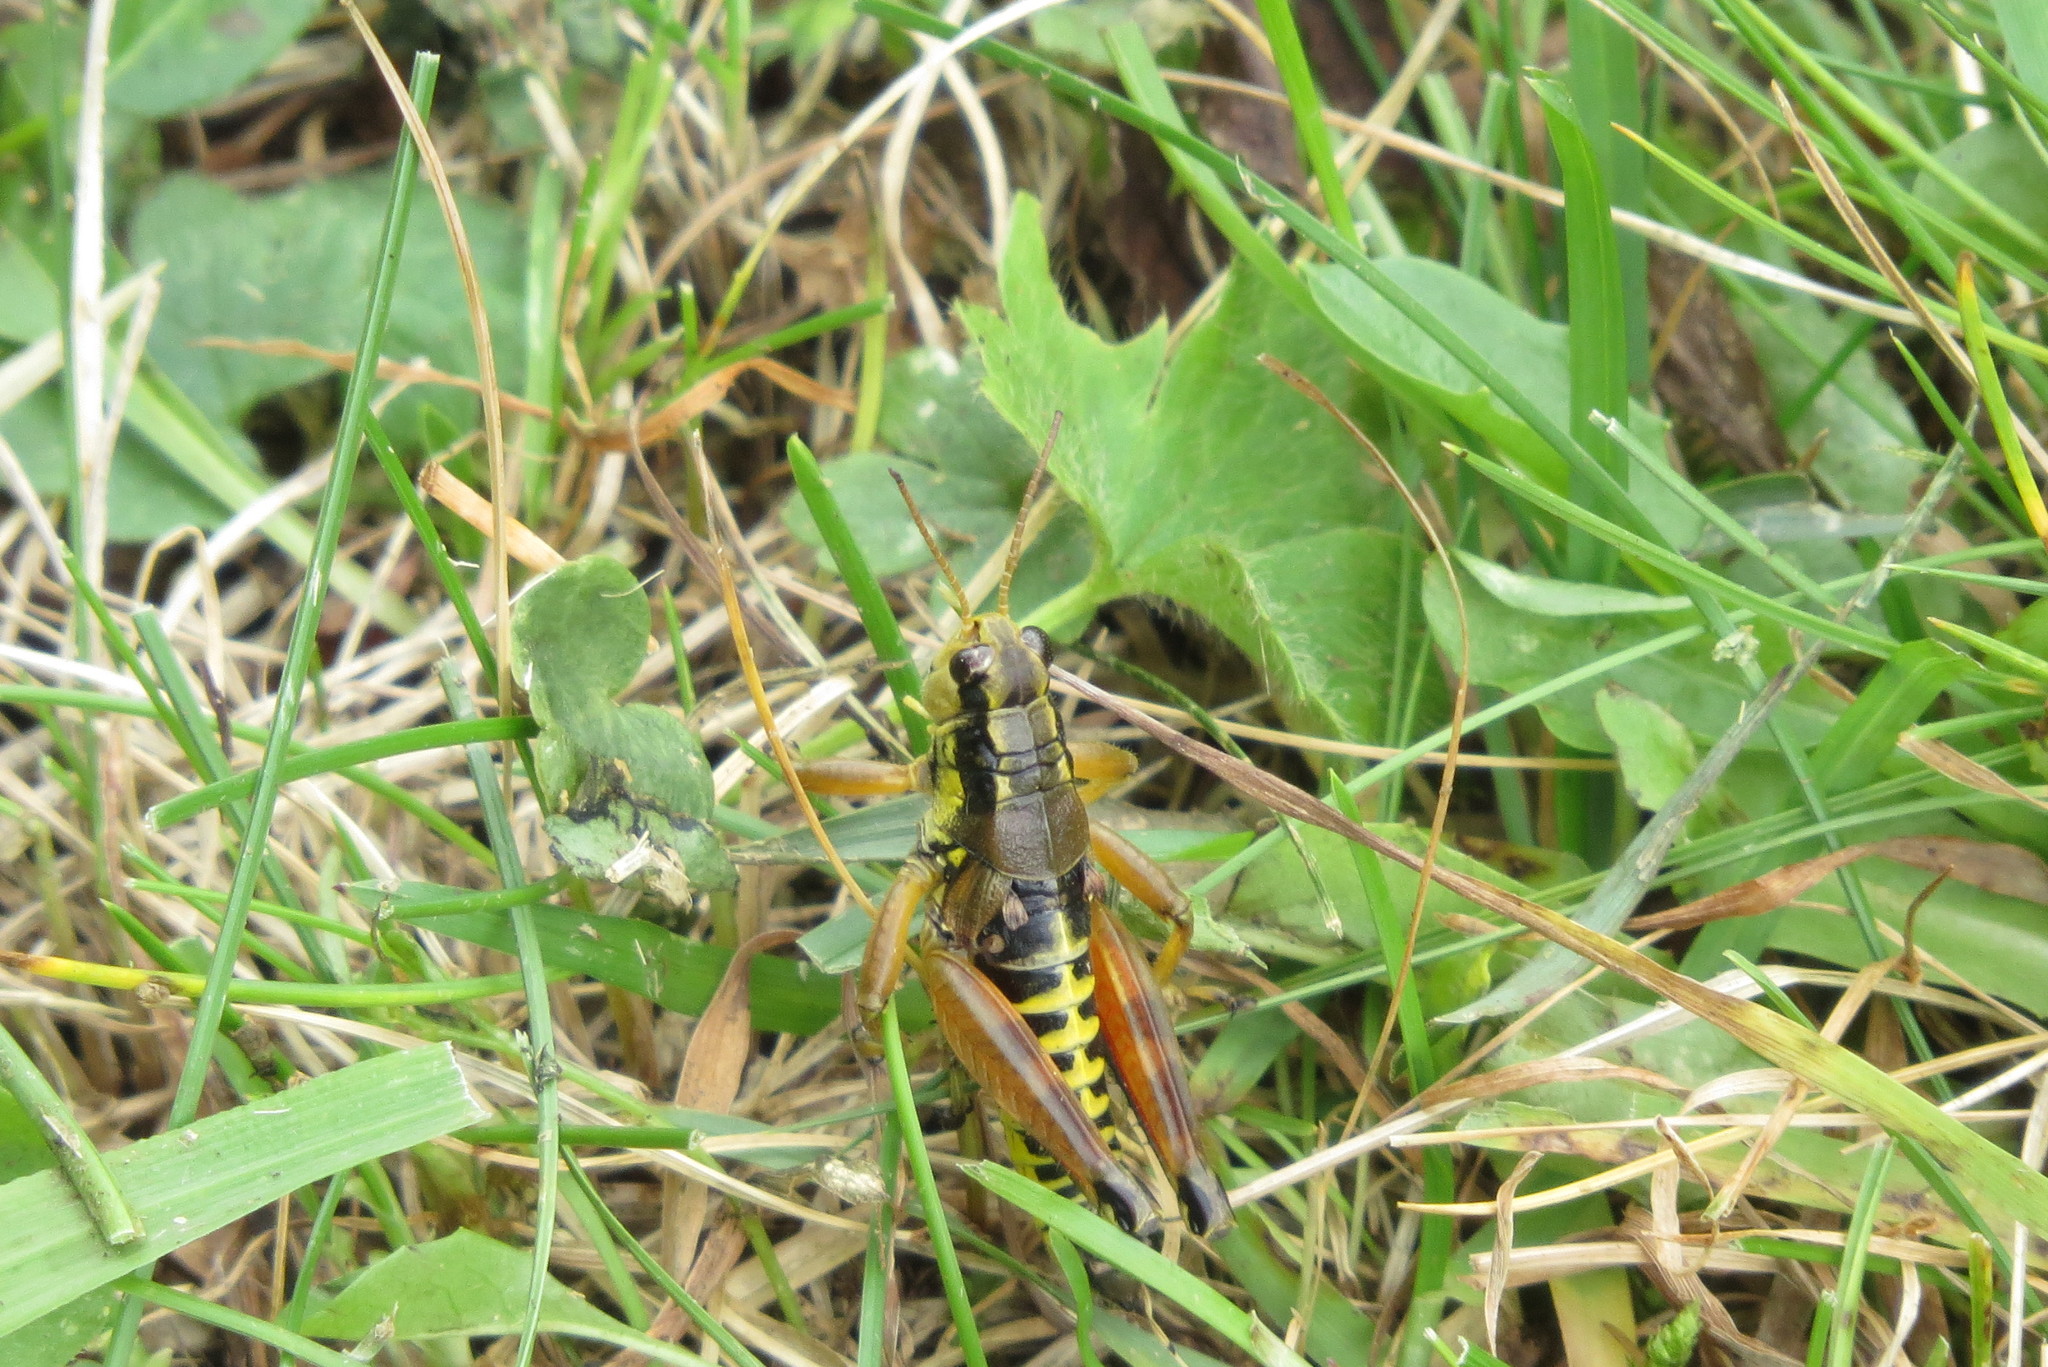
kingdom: Animalia
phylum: Arthropoda
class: Insecta
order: Orthoptera
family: Acrididae
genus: Podisma
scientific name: Podisma pedestris
